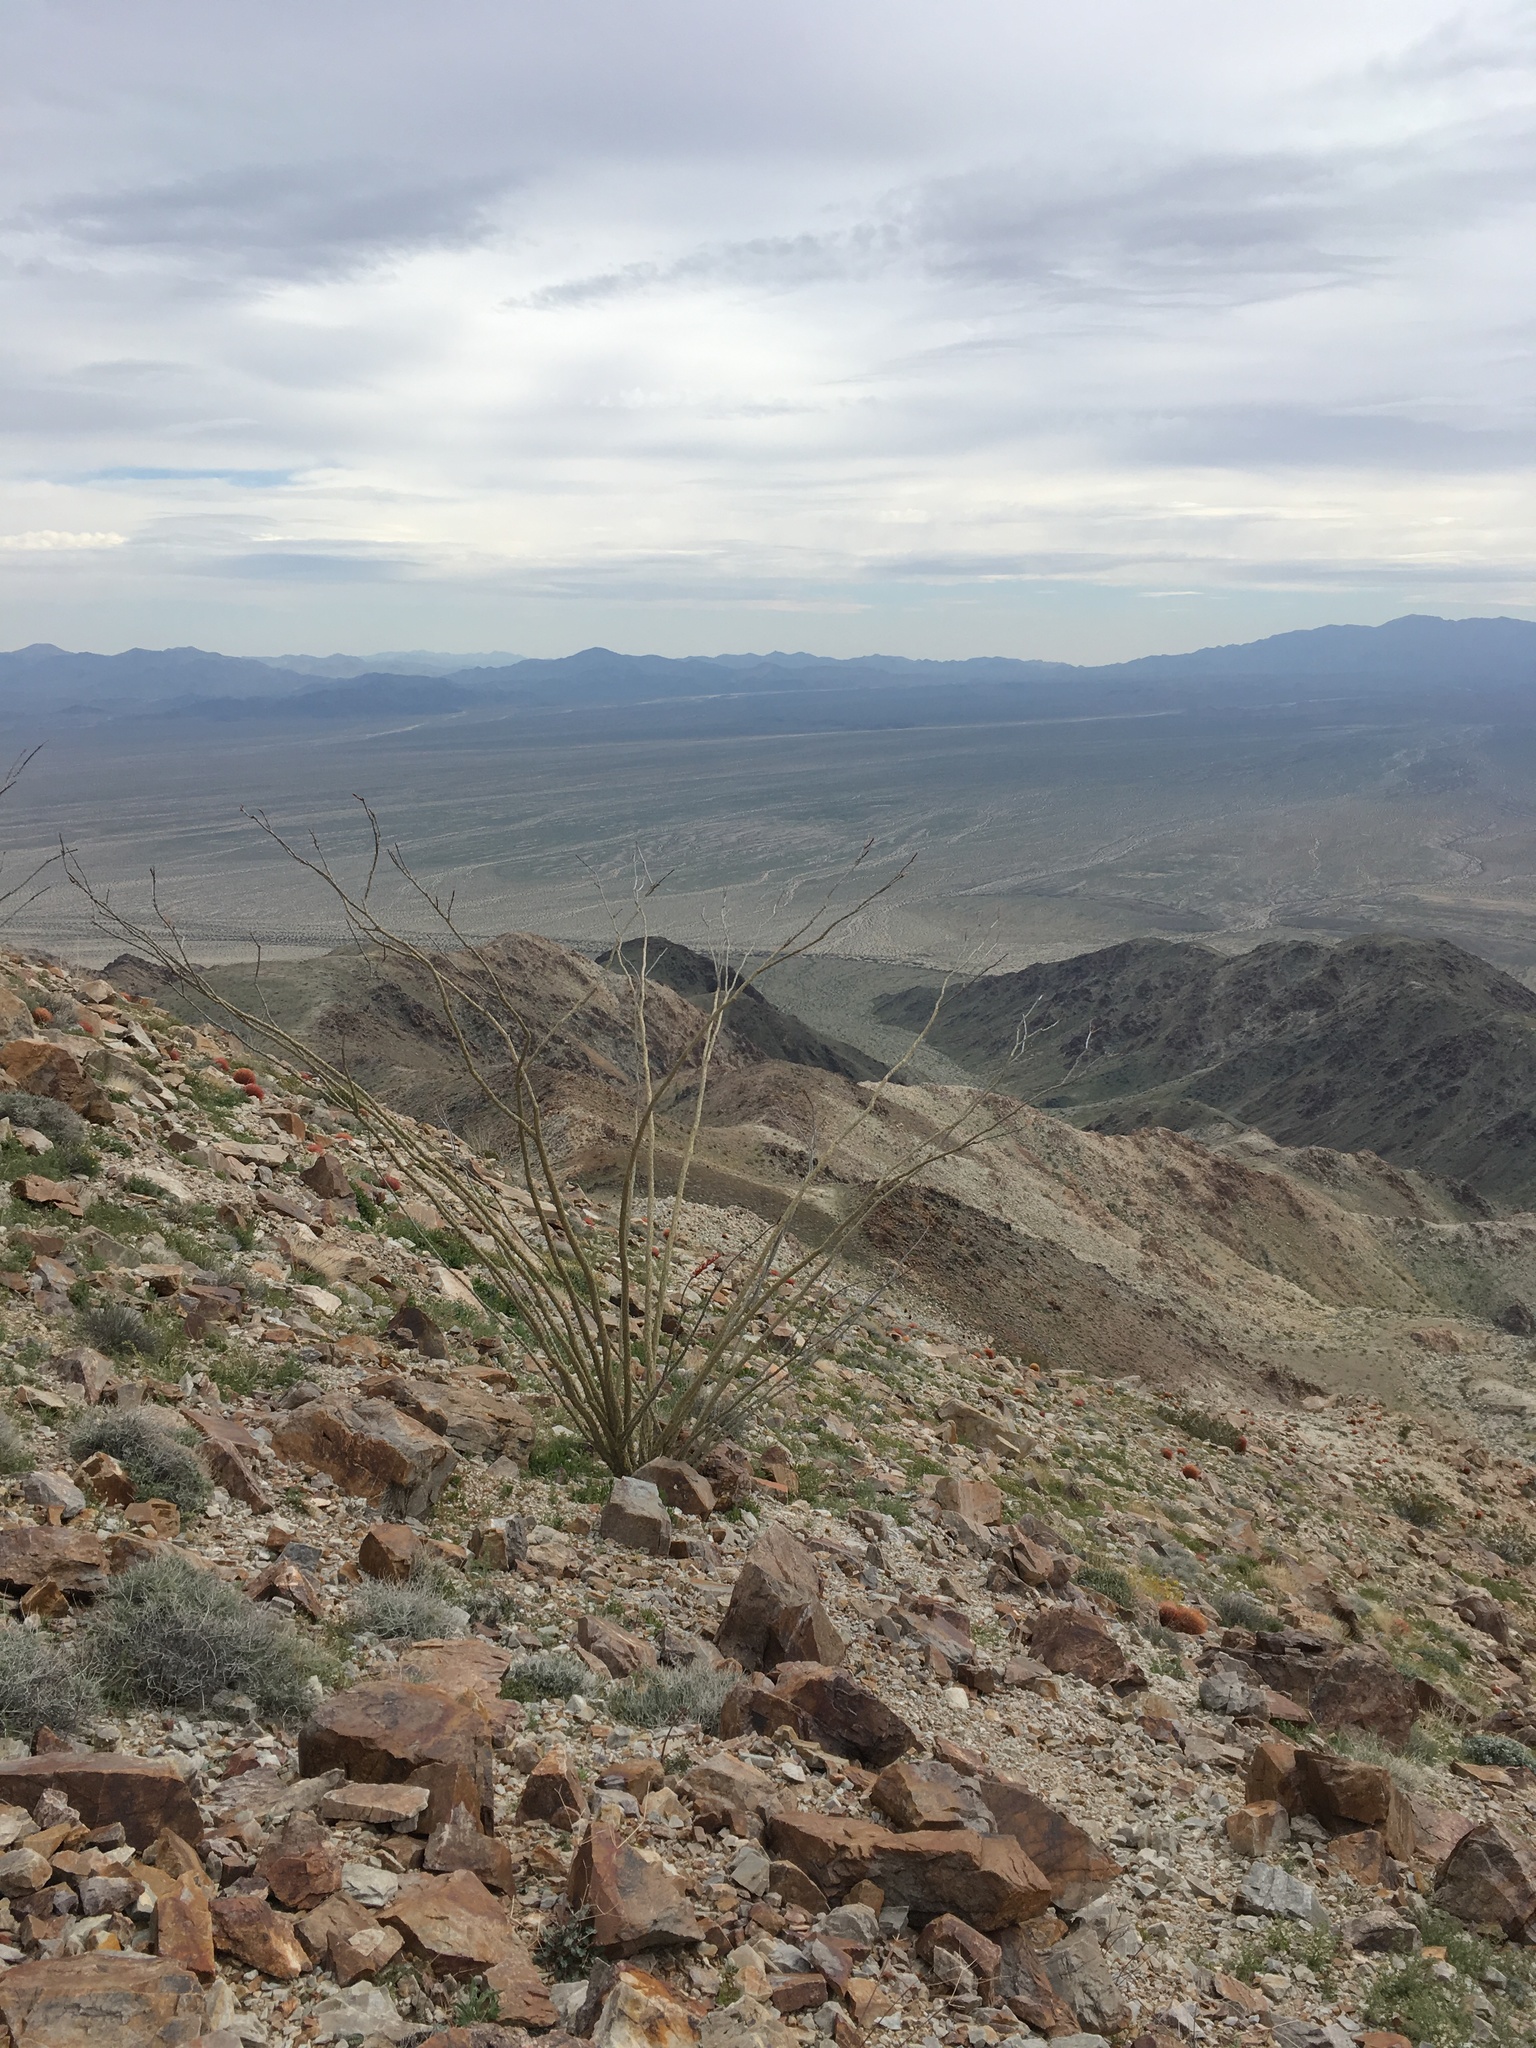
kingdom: Plantae
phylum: Tracheophyta
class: Magnoliopsida
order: Ericales
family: Fouquieriaceae
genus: Fouquieria
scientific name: Fouquieria splendens
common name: Vine-cactus
